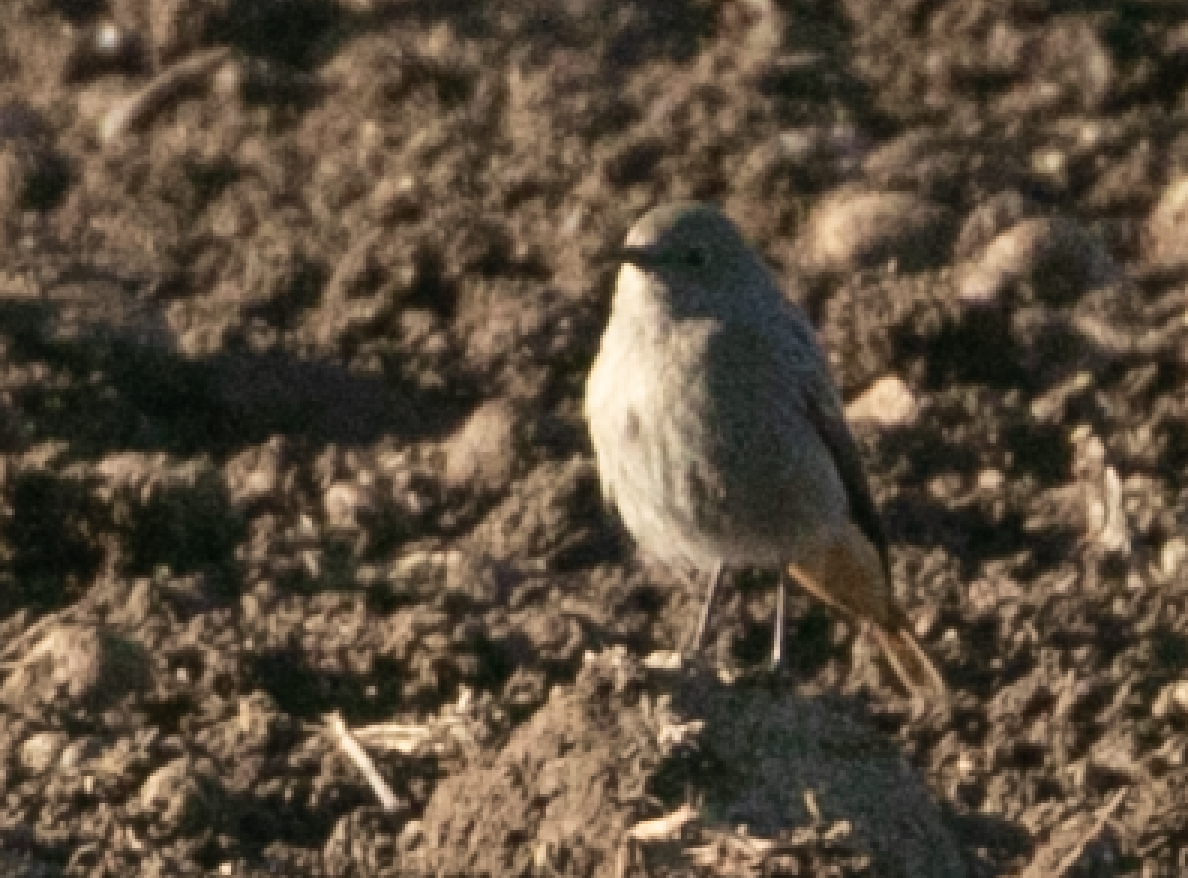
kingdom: Animalia
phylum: Chordata
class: Aves
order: Passeriformes
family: Muscicapidae
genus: Phoenicurus
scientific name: Phoenicurus ochruros
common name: Black redstart
